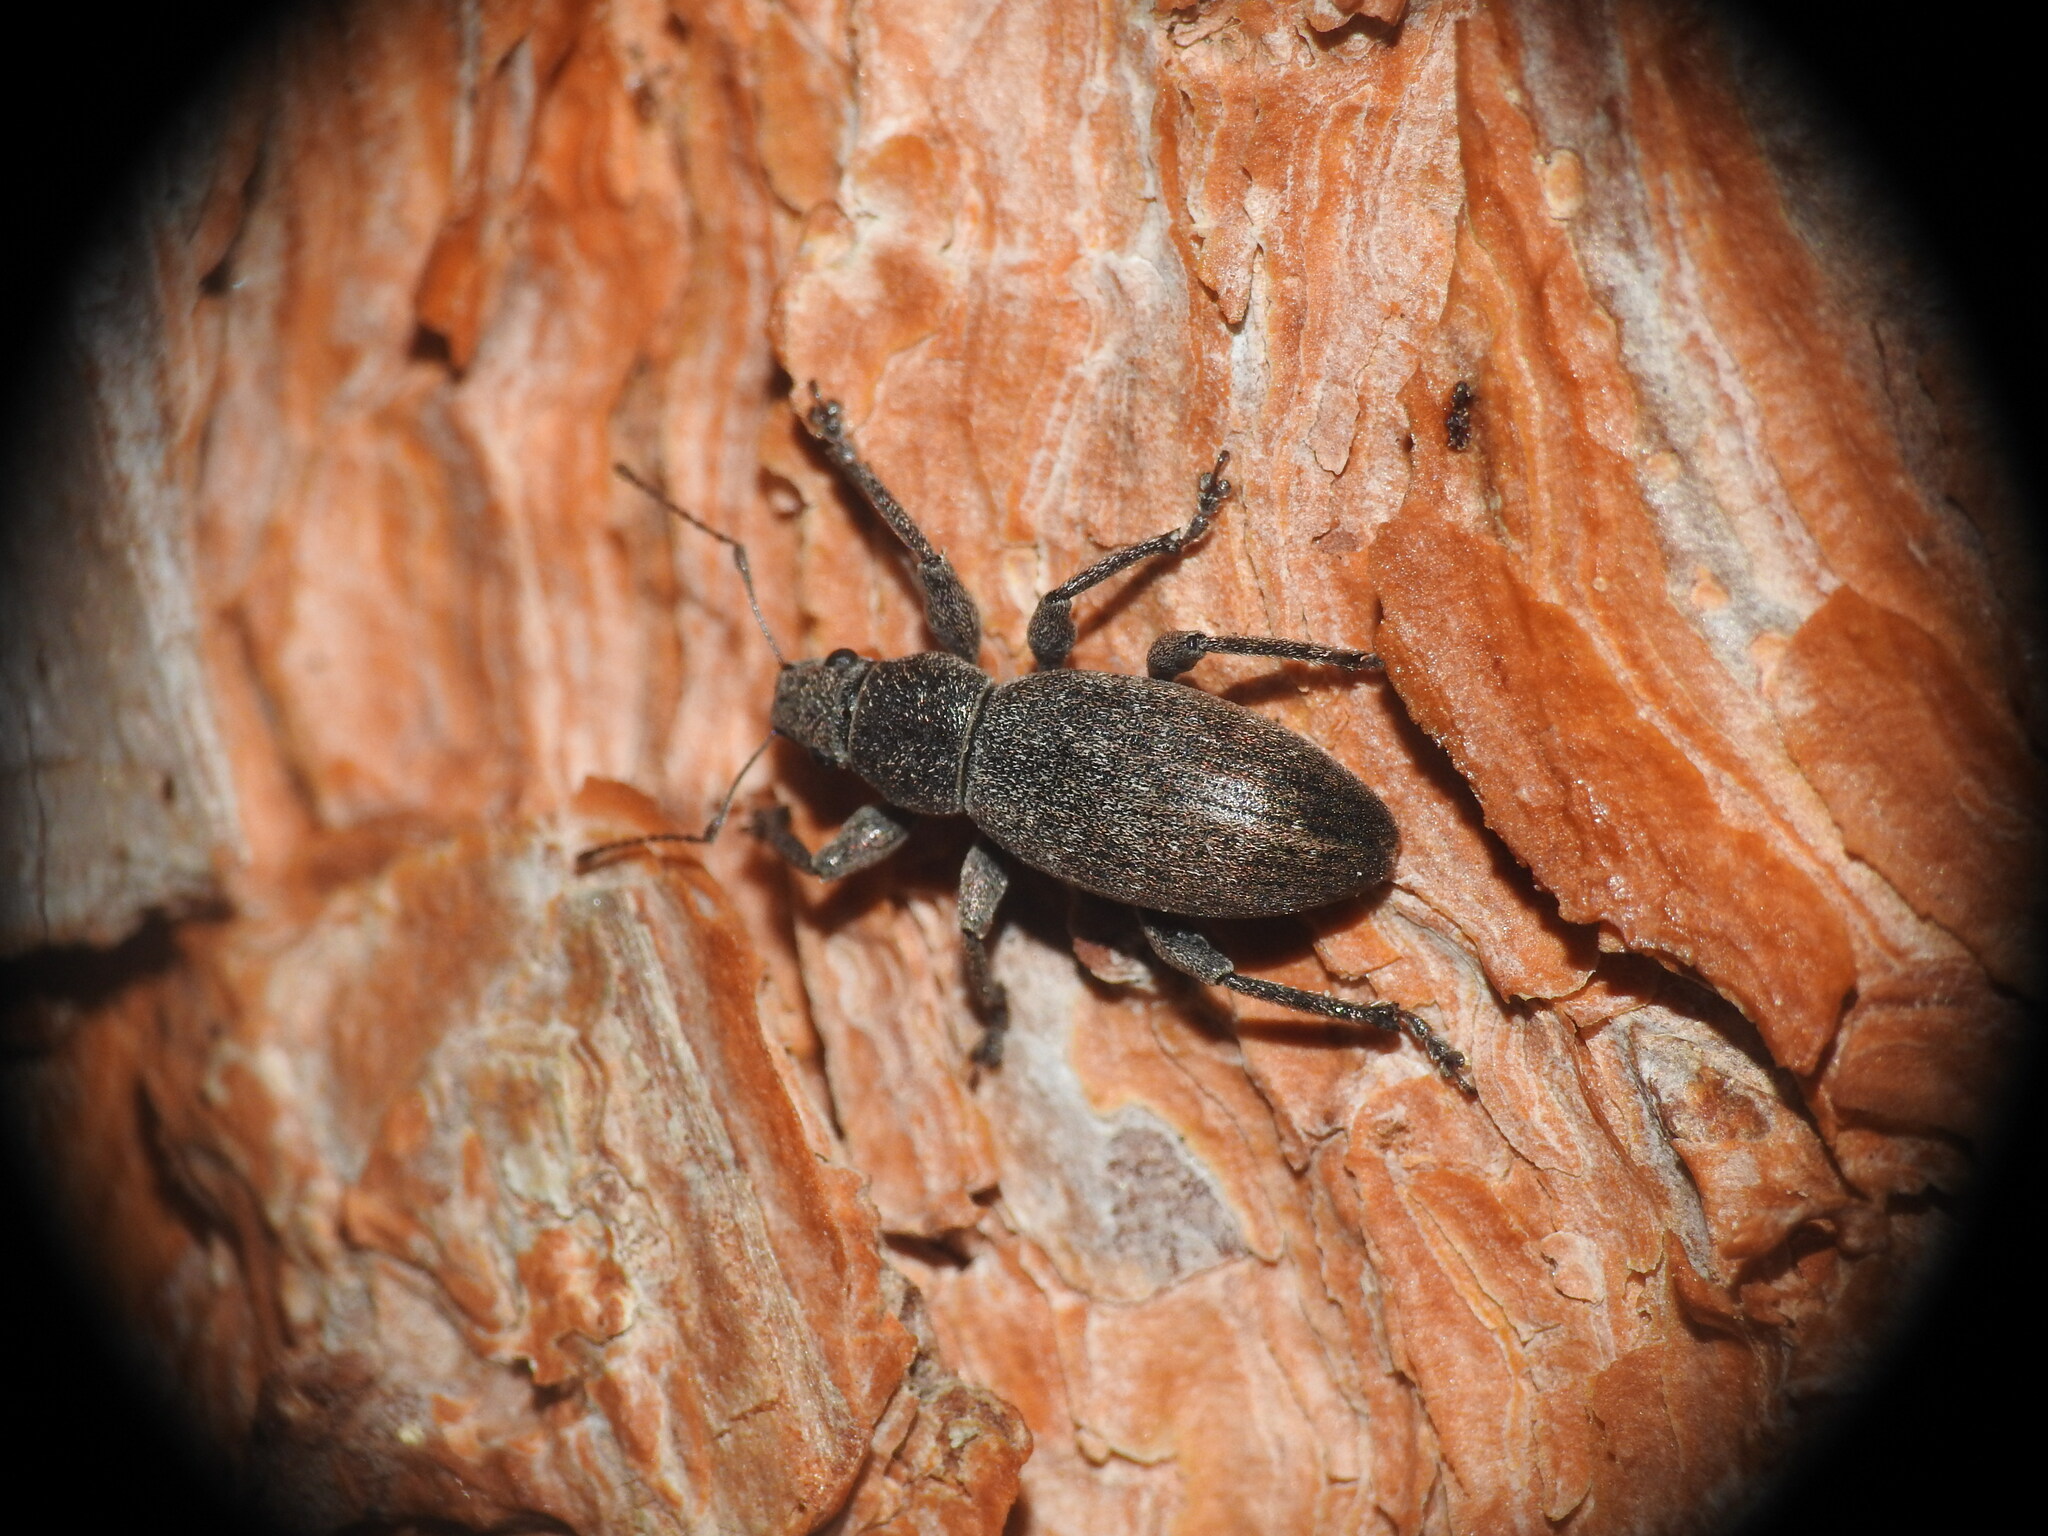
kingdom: Animalia
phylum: Arthropoda
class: Insecta
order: Coleoptera
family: Curculionidae
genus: Brachyderes
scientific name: Brachyderes incanus
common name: Weevil
